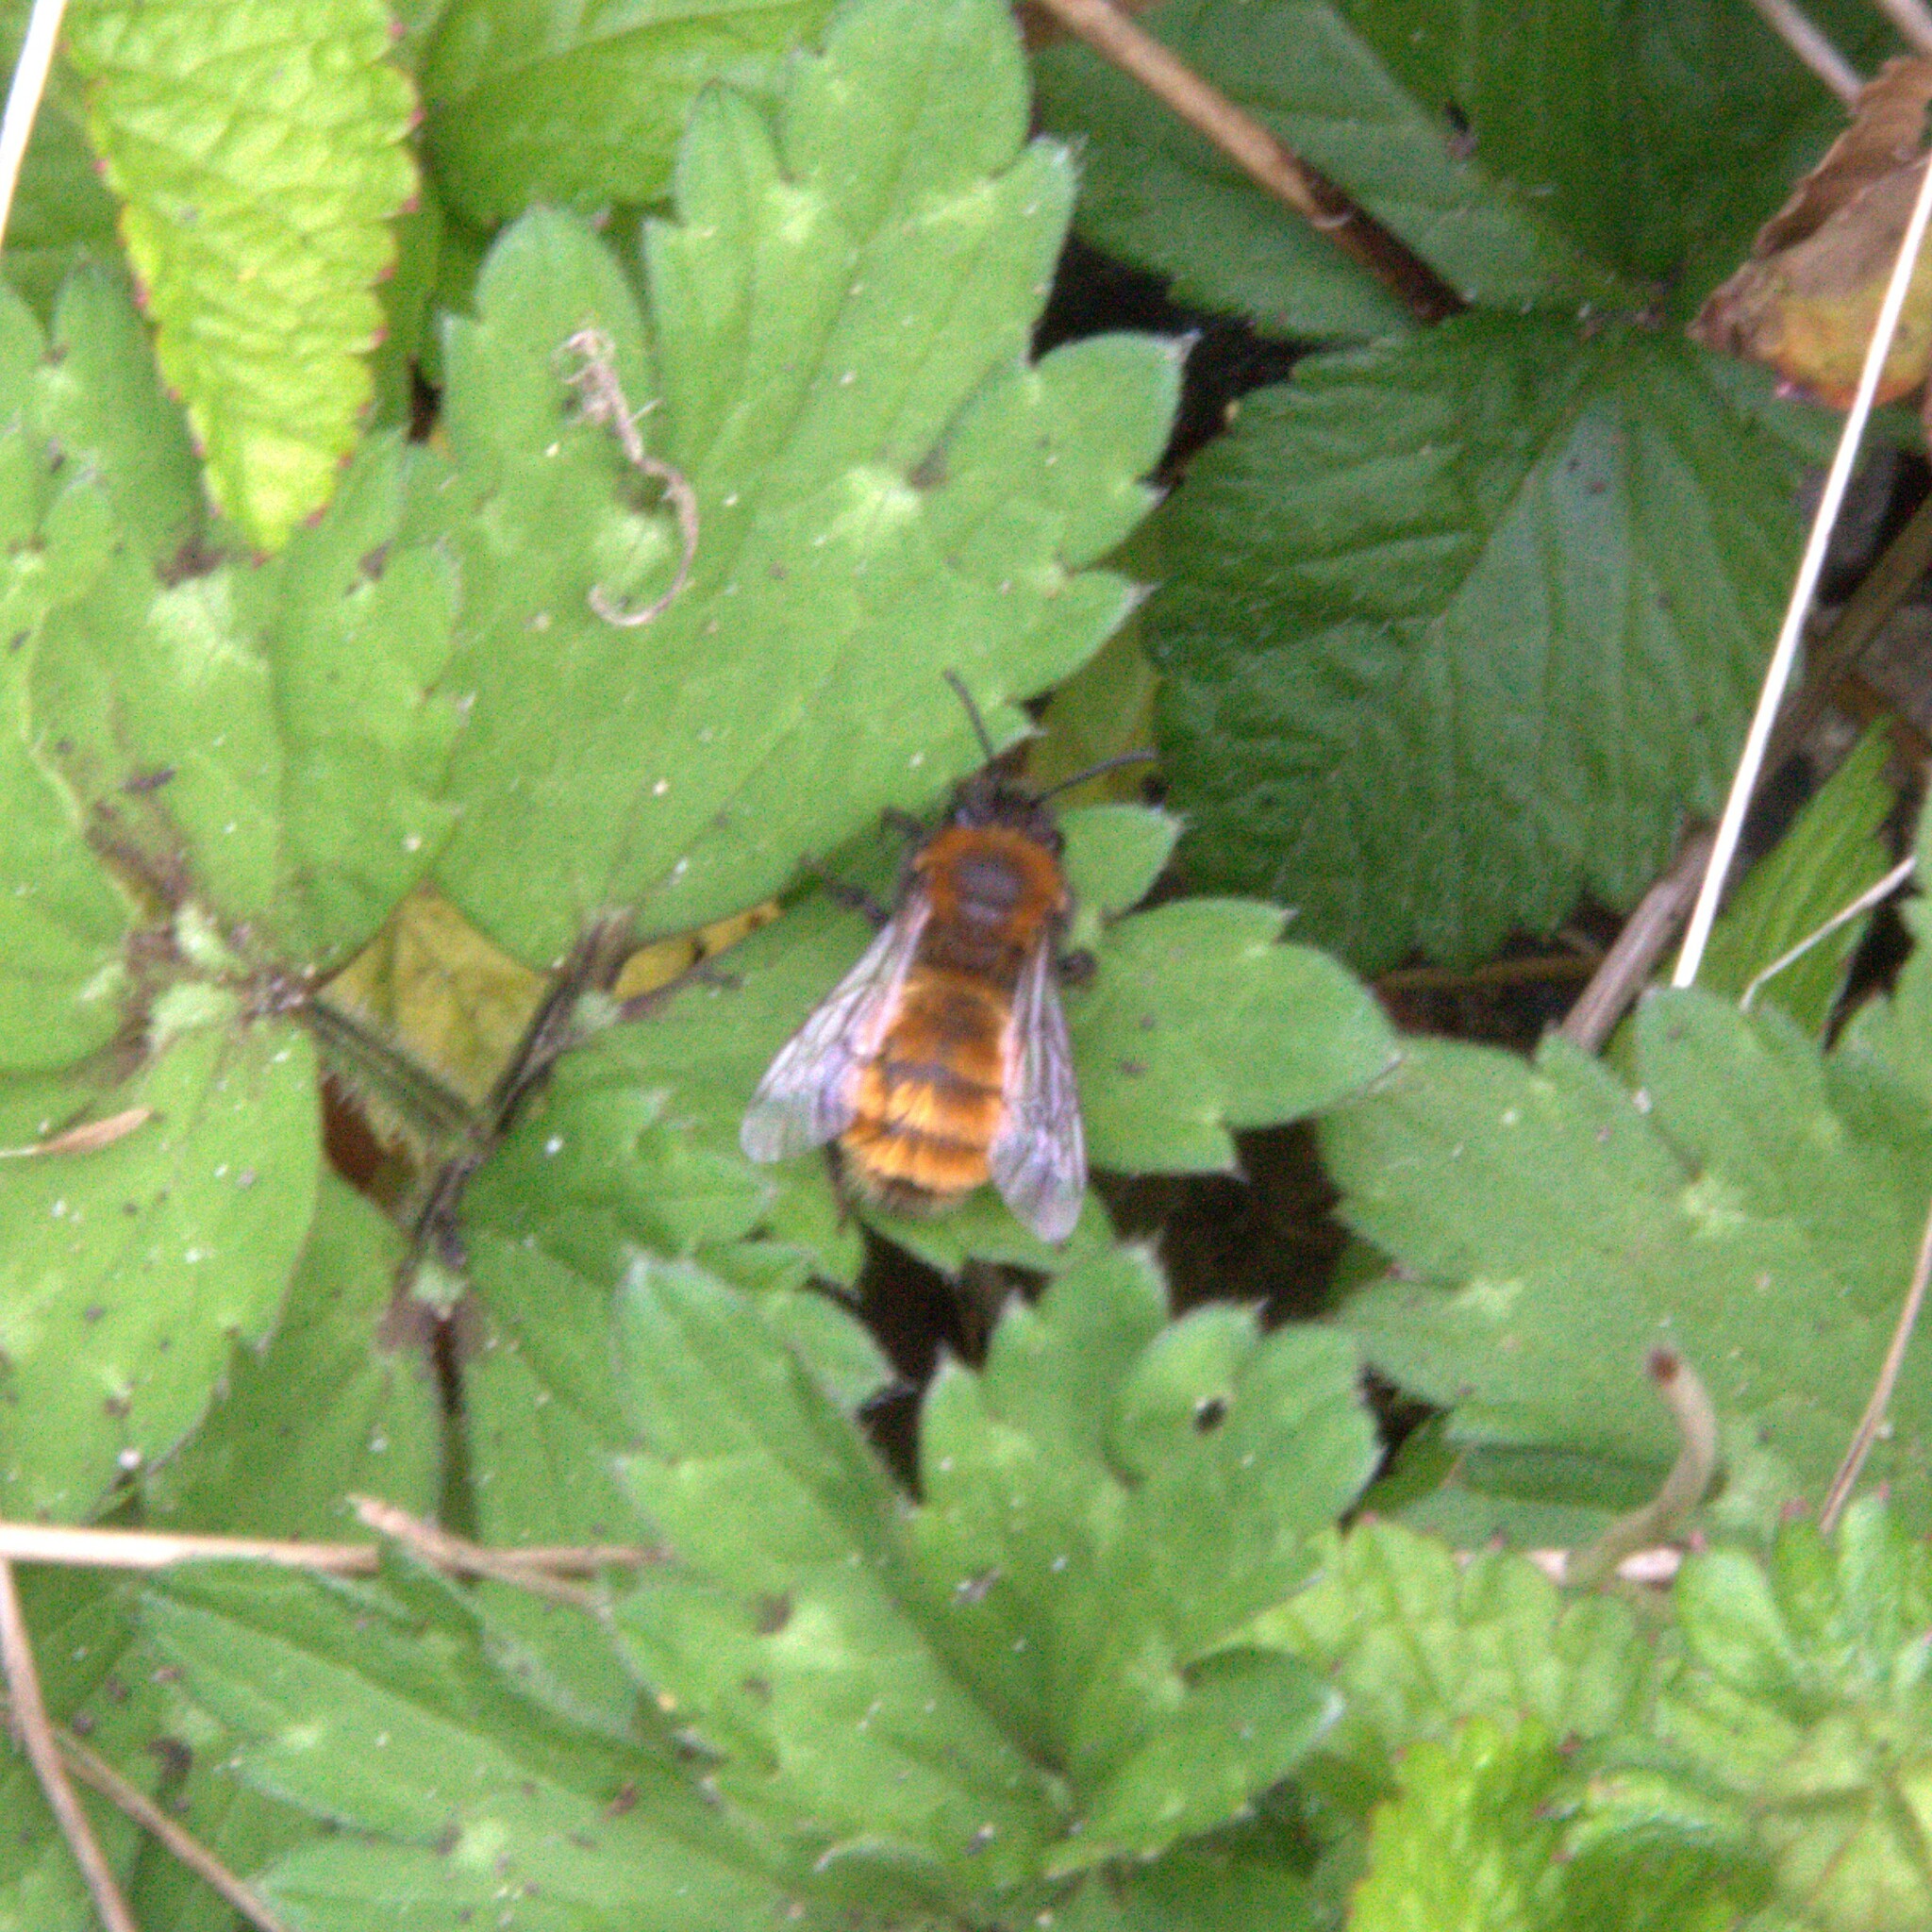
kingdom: Animalia
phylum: Arthropoda
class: Insecta
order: Hymenoptera
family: Andrenidae
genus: Andrena
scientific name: Andrena fulva
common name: Tawny mining bee
